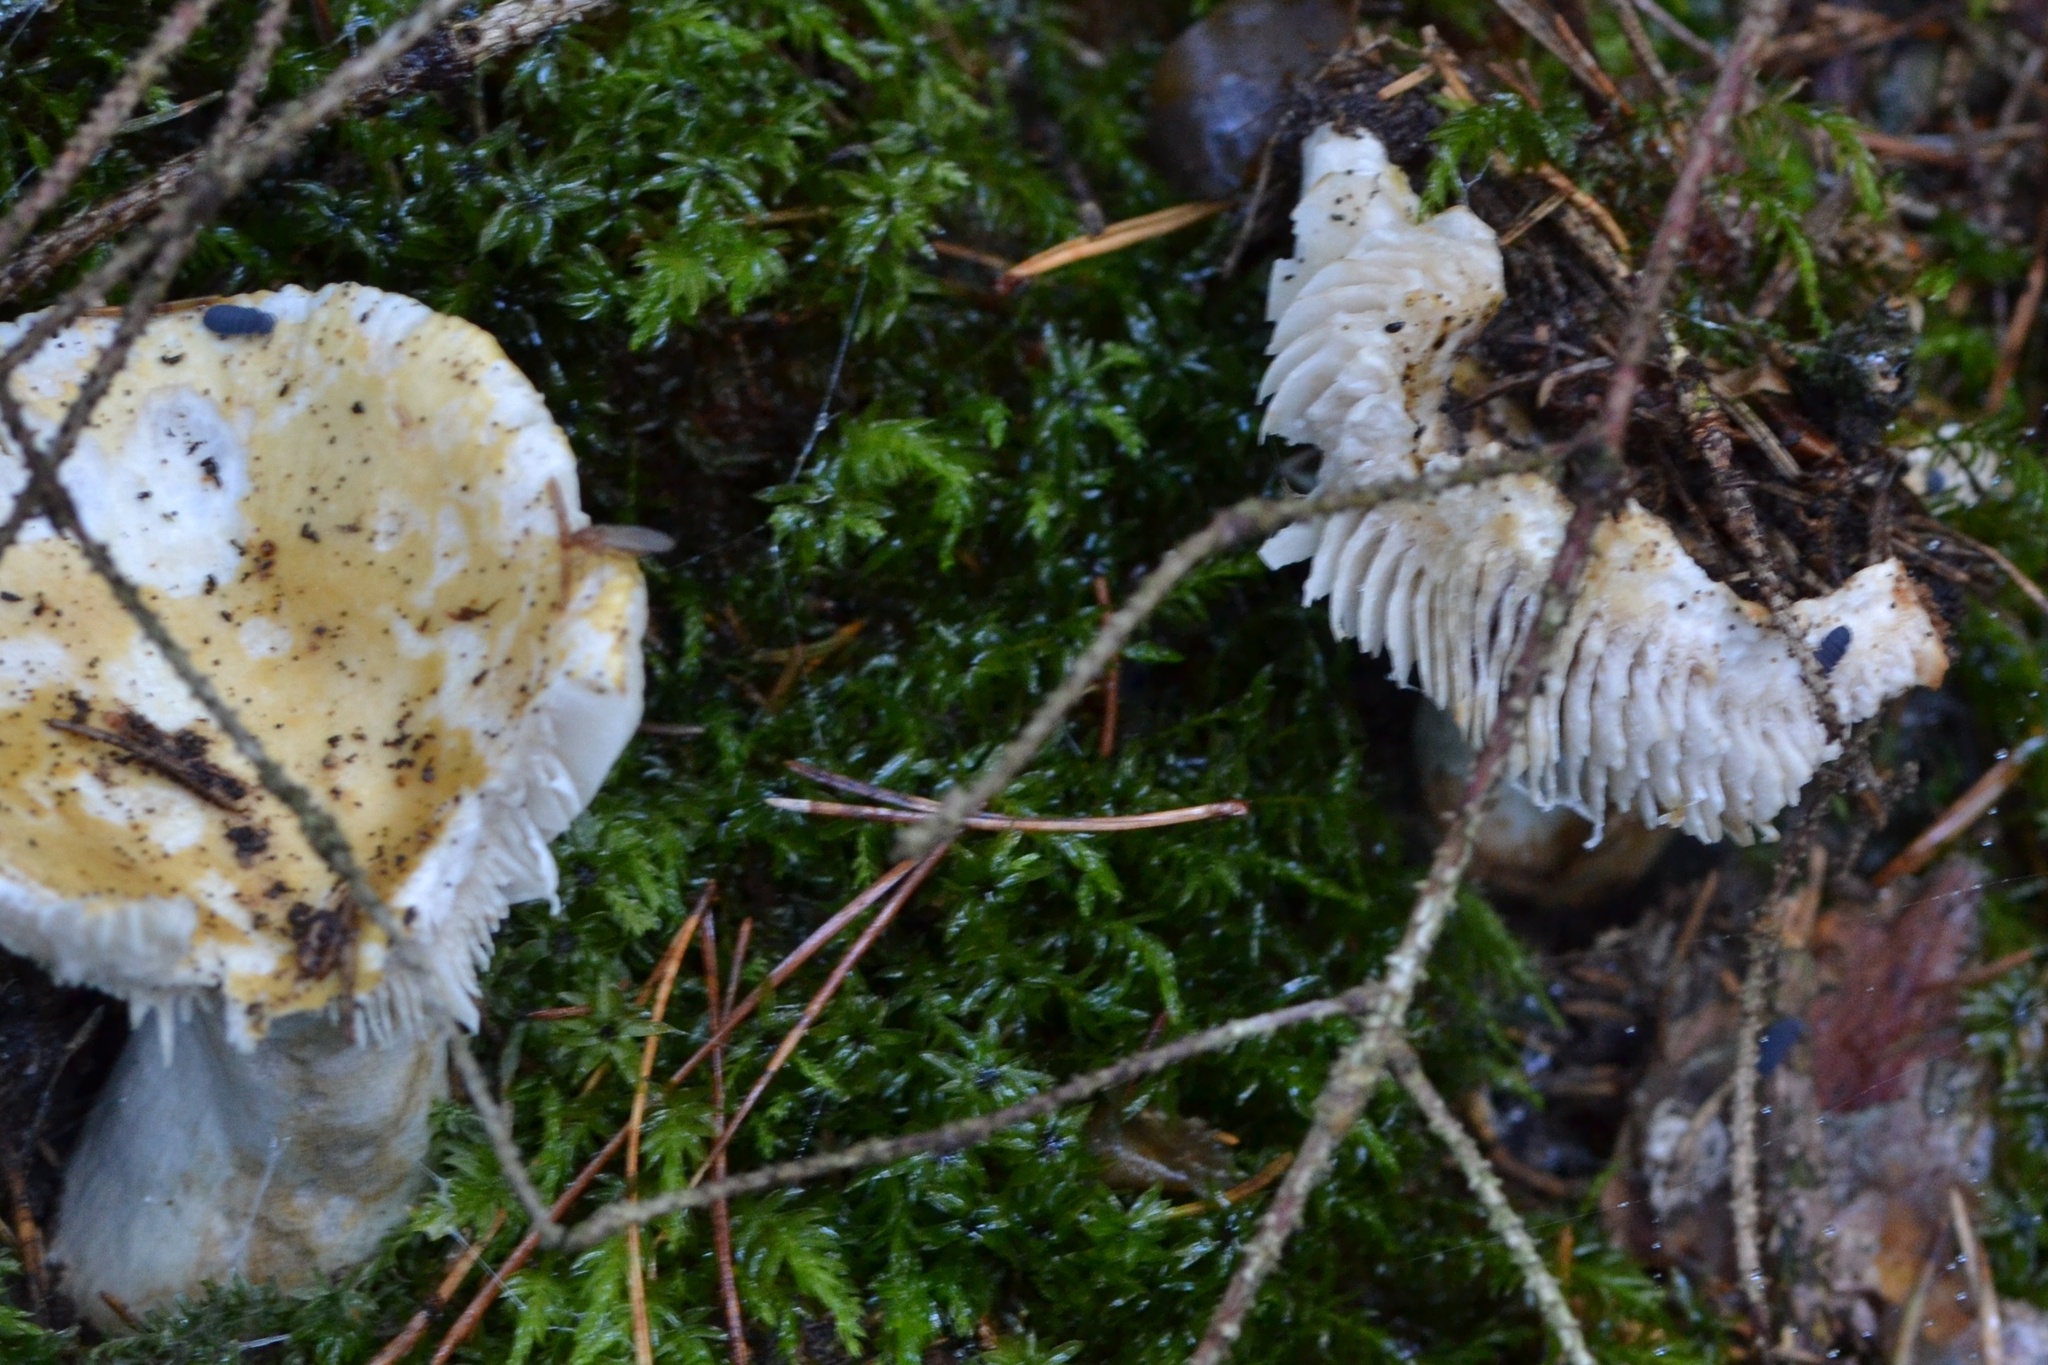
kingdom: Fungi
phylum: Basidiomycota
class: Agaricomycetes
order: Russulales
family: Russulaceae
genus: Russula
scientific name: Russula ochroleuca
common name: Common yellow russula
